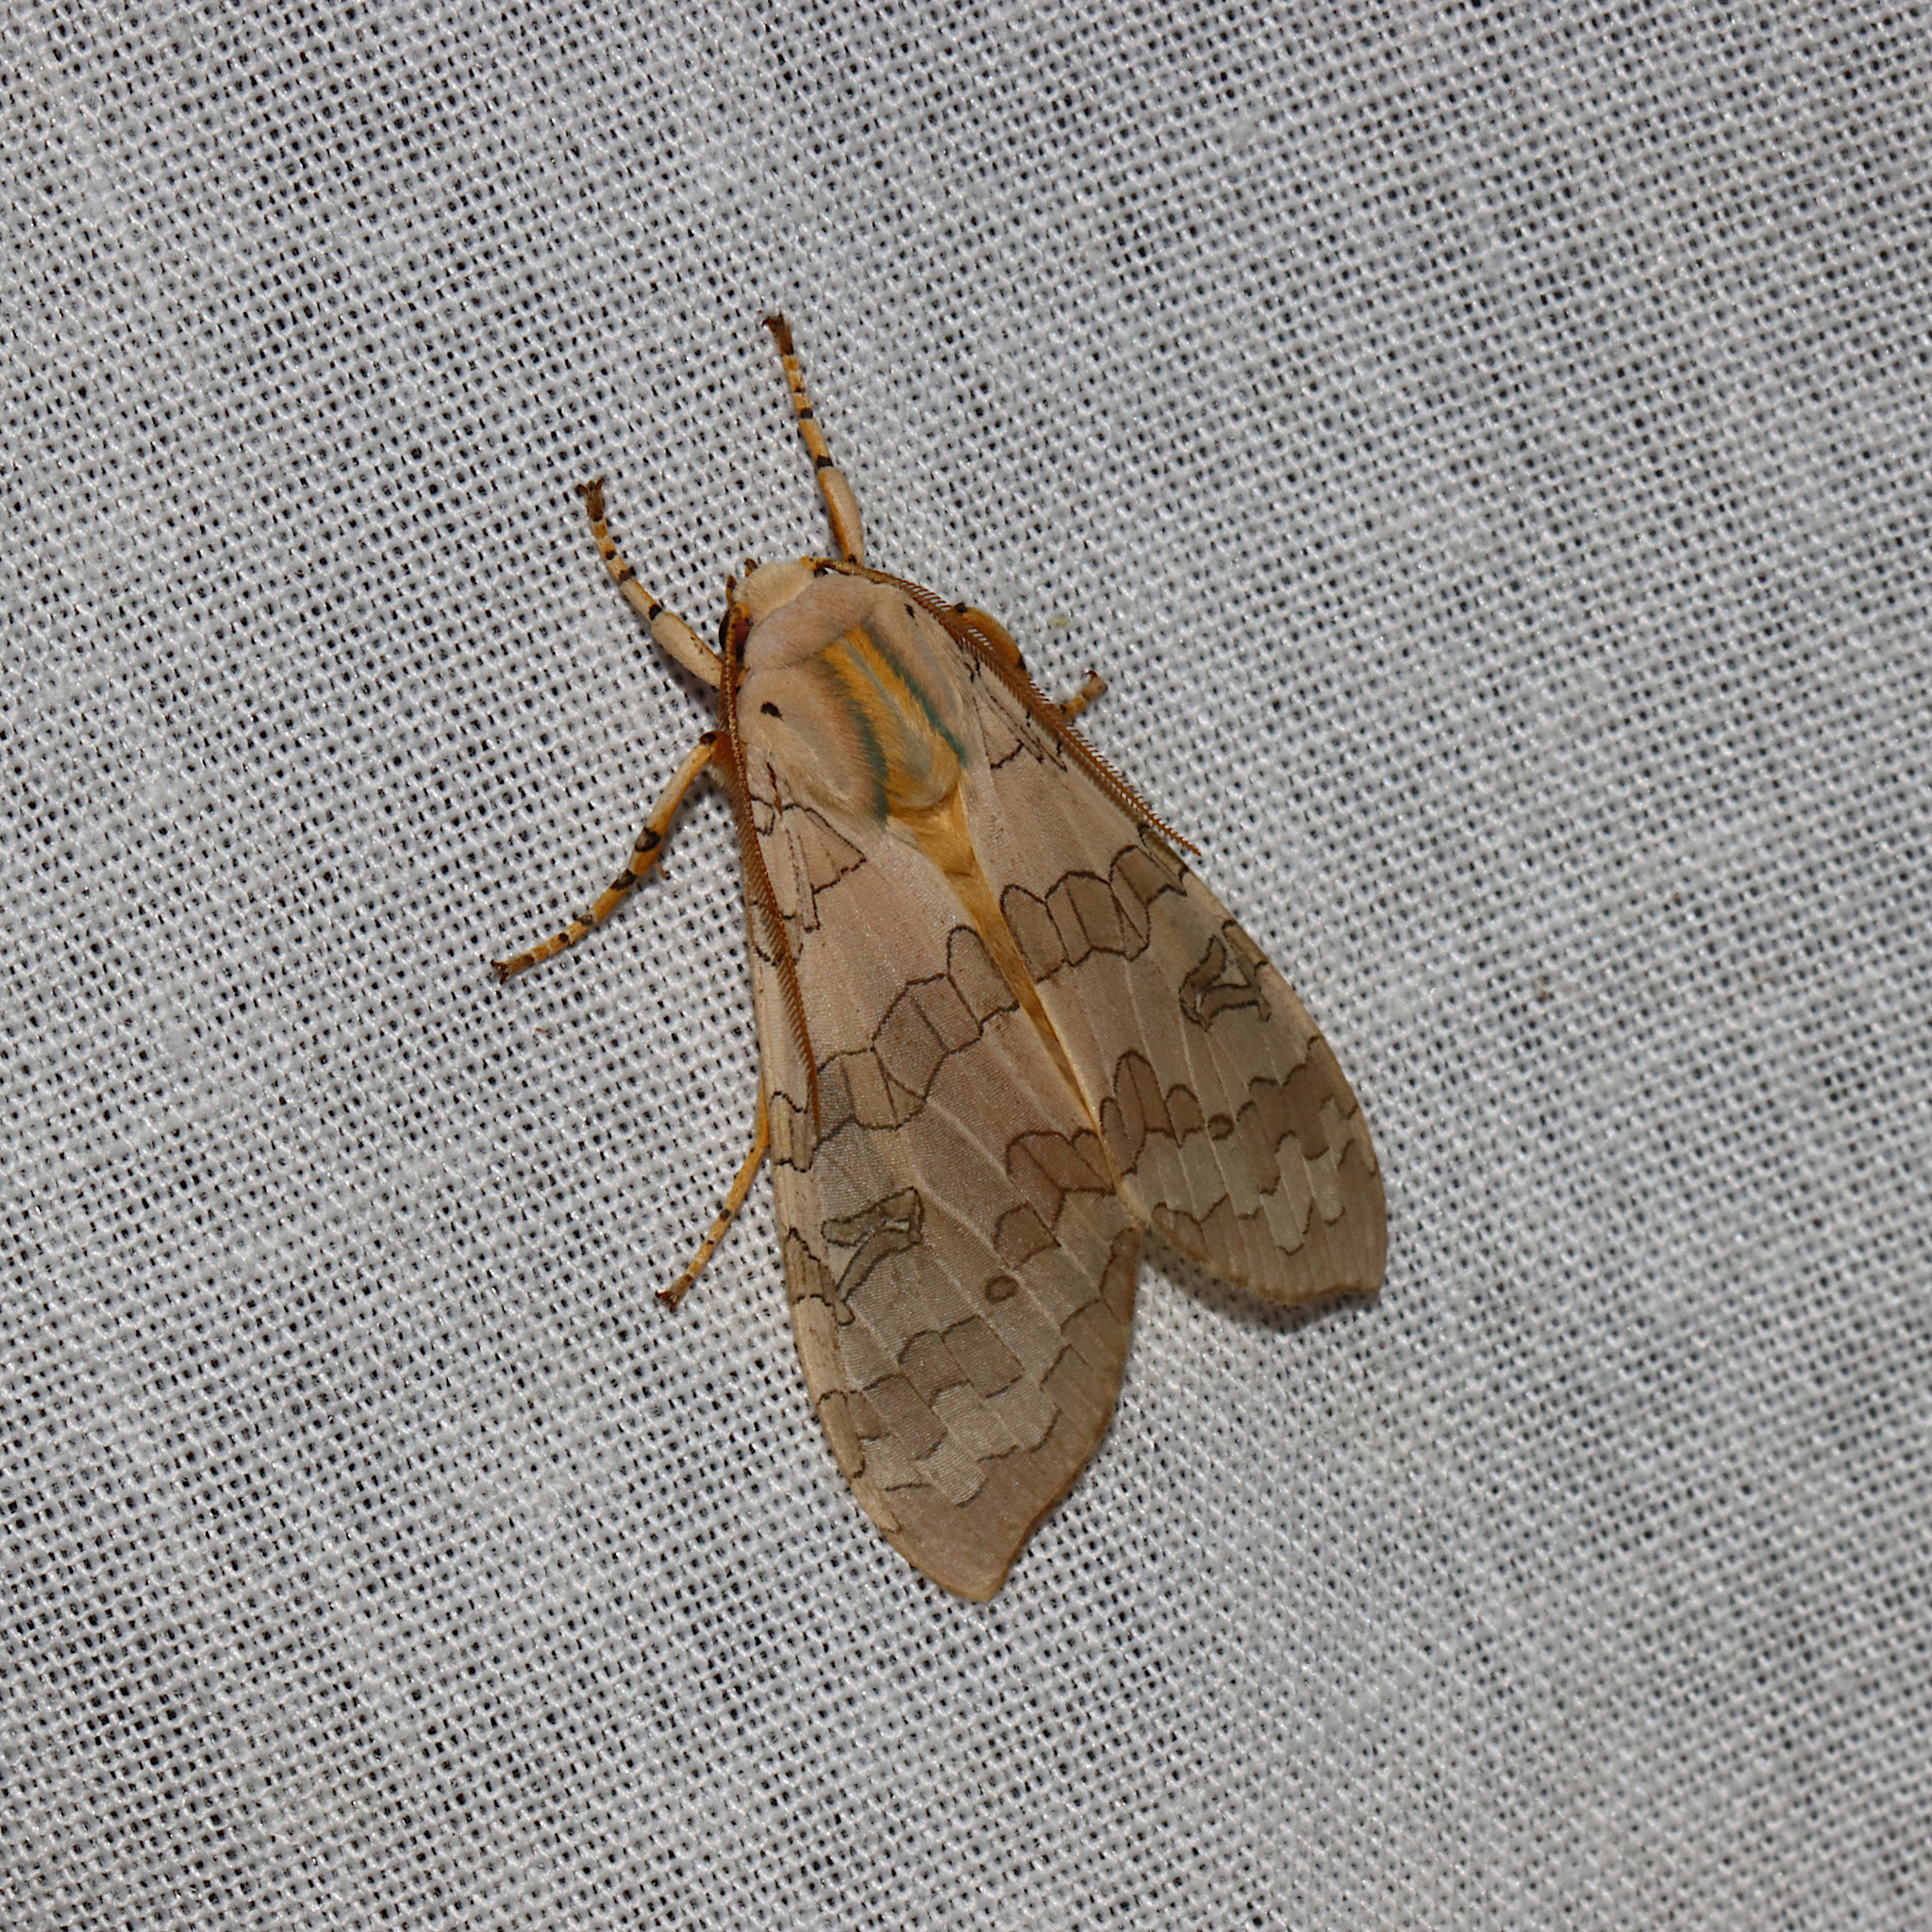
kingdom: Animalia
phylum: Arthropoda
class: Insecta
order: Lepidoptera
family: Erebidae
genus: Halysidota
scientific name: Halysidota
